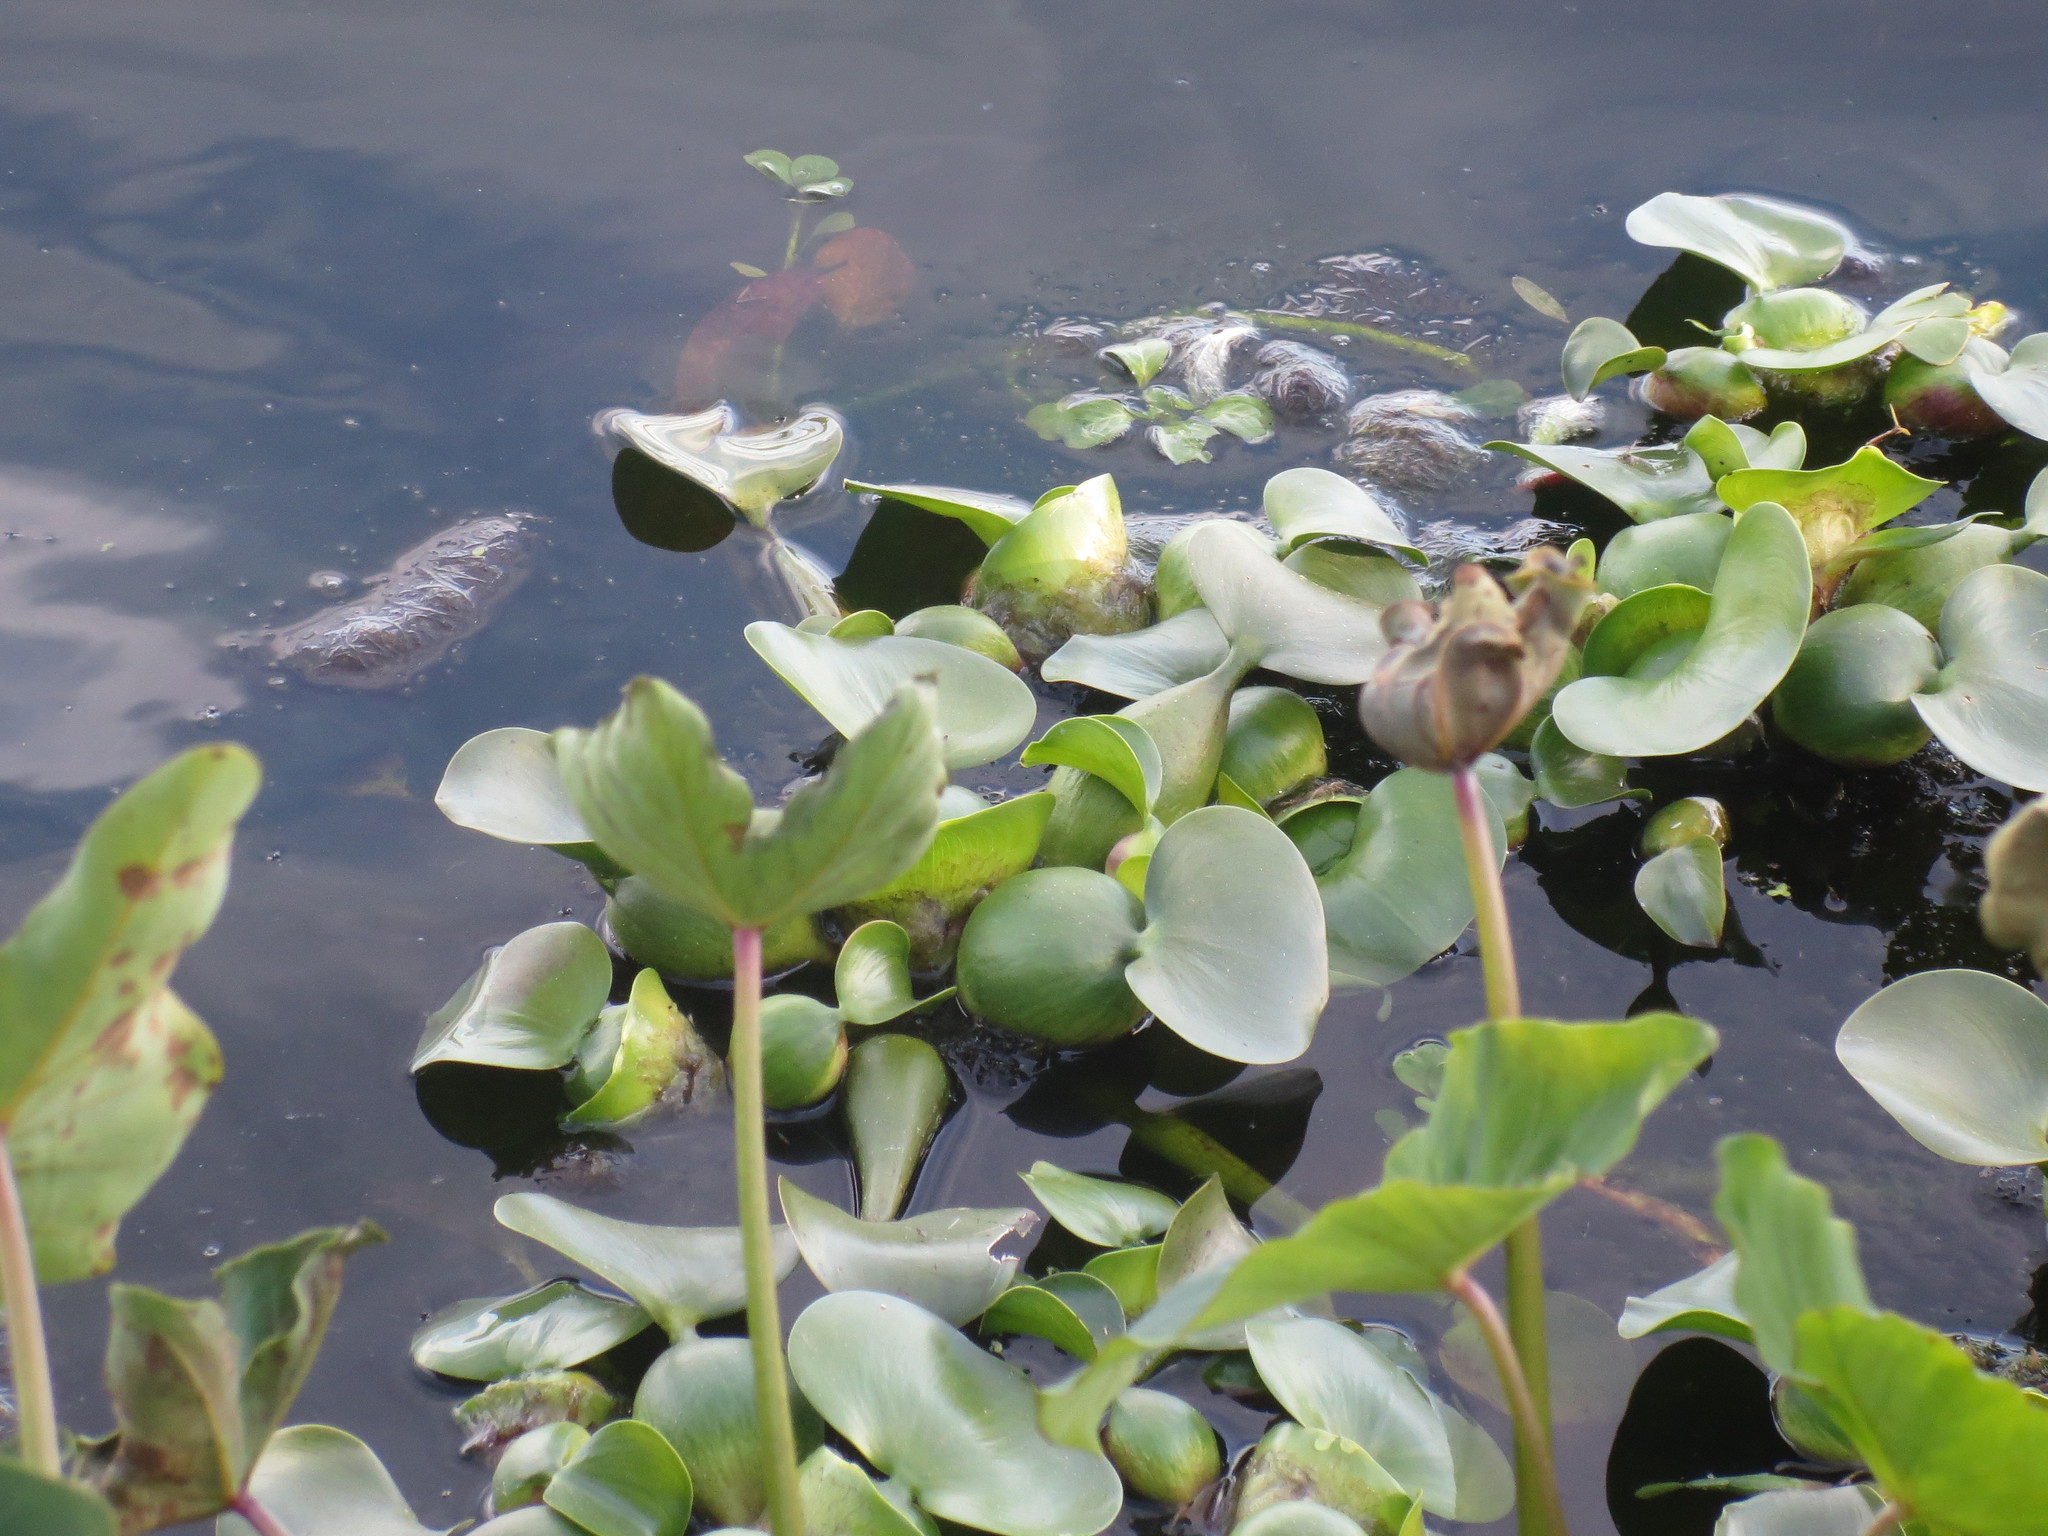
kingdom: Plantae
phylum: Tracheophyta
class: Liliopsida
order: Commelinales
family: Pontederiaceae
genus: Pontederia
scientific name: Pontederia crassipes
